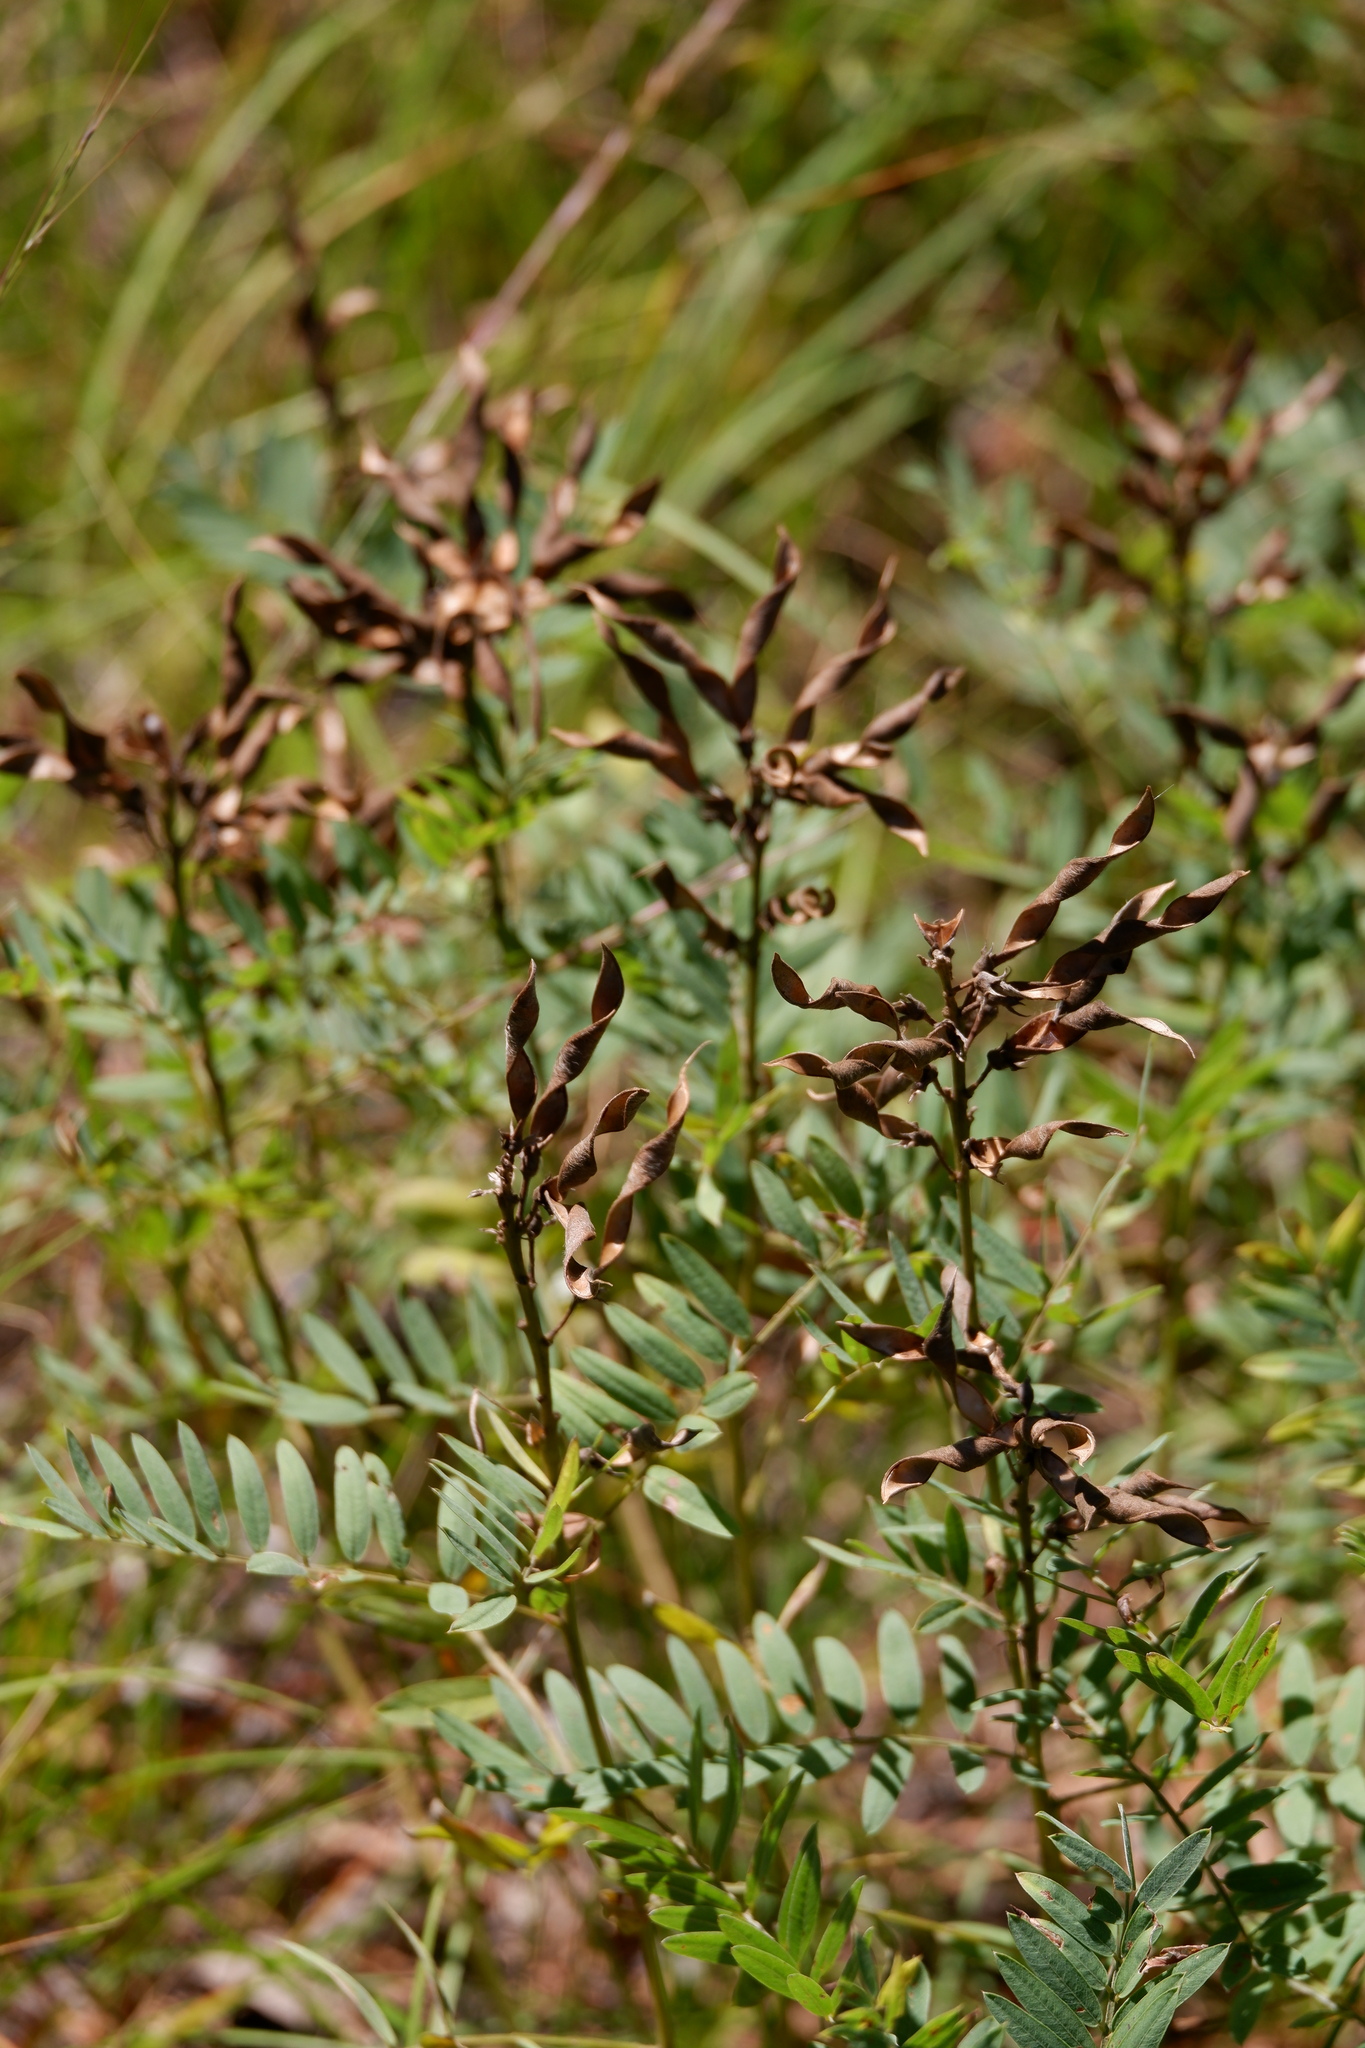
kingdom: Plantae
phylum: Tracheophyta
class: Magnoliopsida
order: Fabales
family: Fabaceae
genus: Tephrosia
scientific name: Tephrosia virginiana
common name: Rabbit-pea
